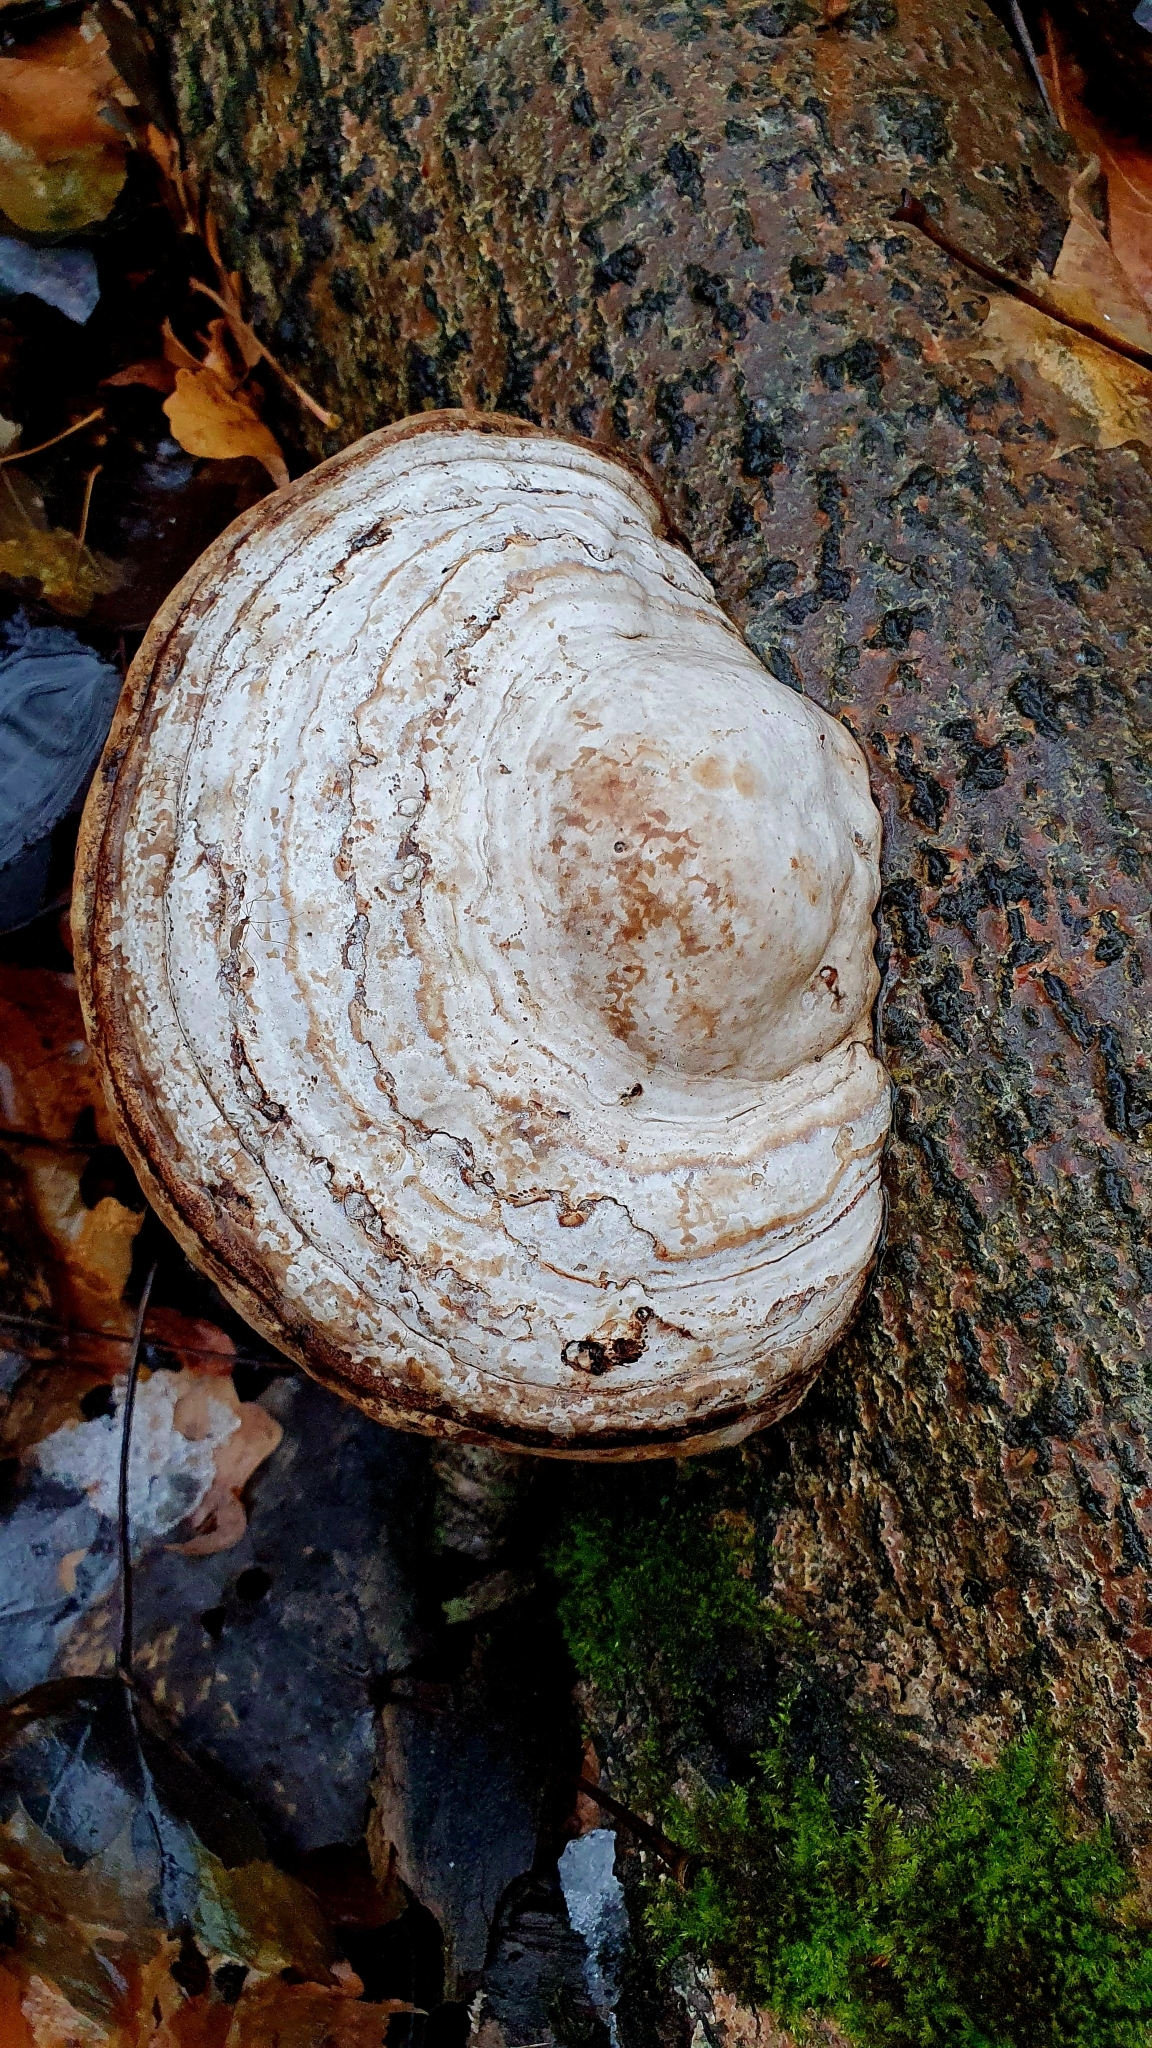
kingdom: Fungi
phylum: Basidiomycota
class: Agaricomycetes
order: Polyporales
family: Polyporaceae
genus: Fomes
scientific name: Fomes fomentarius
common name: Hoof fungus
